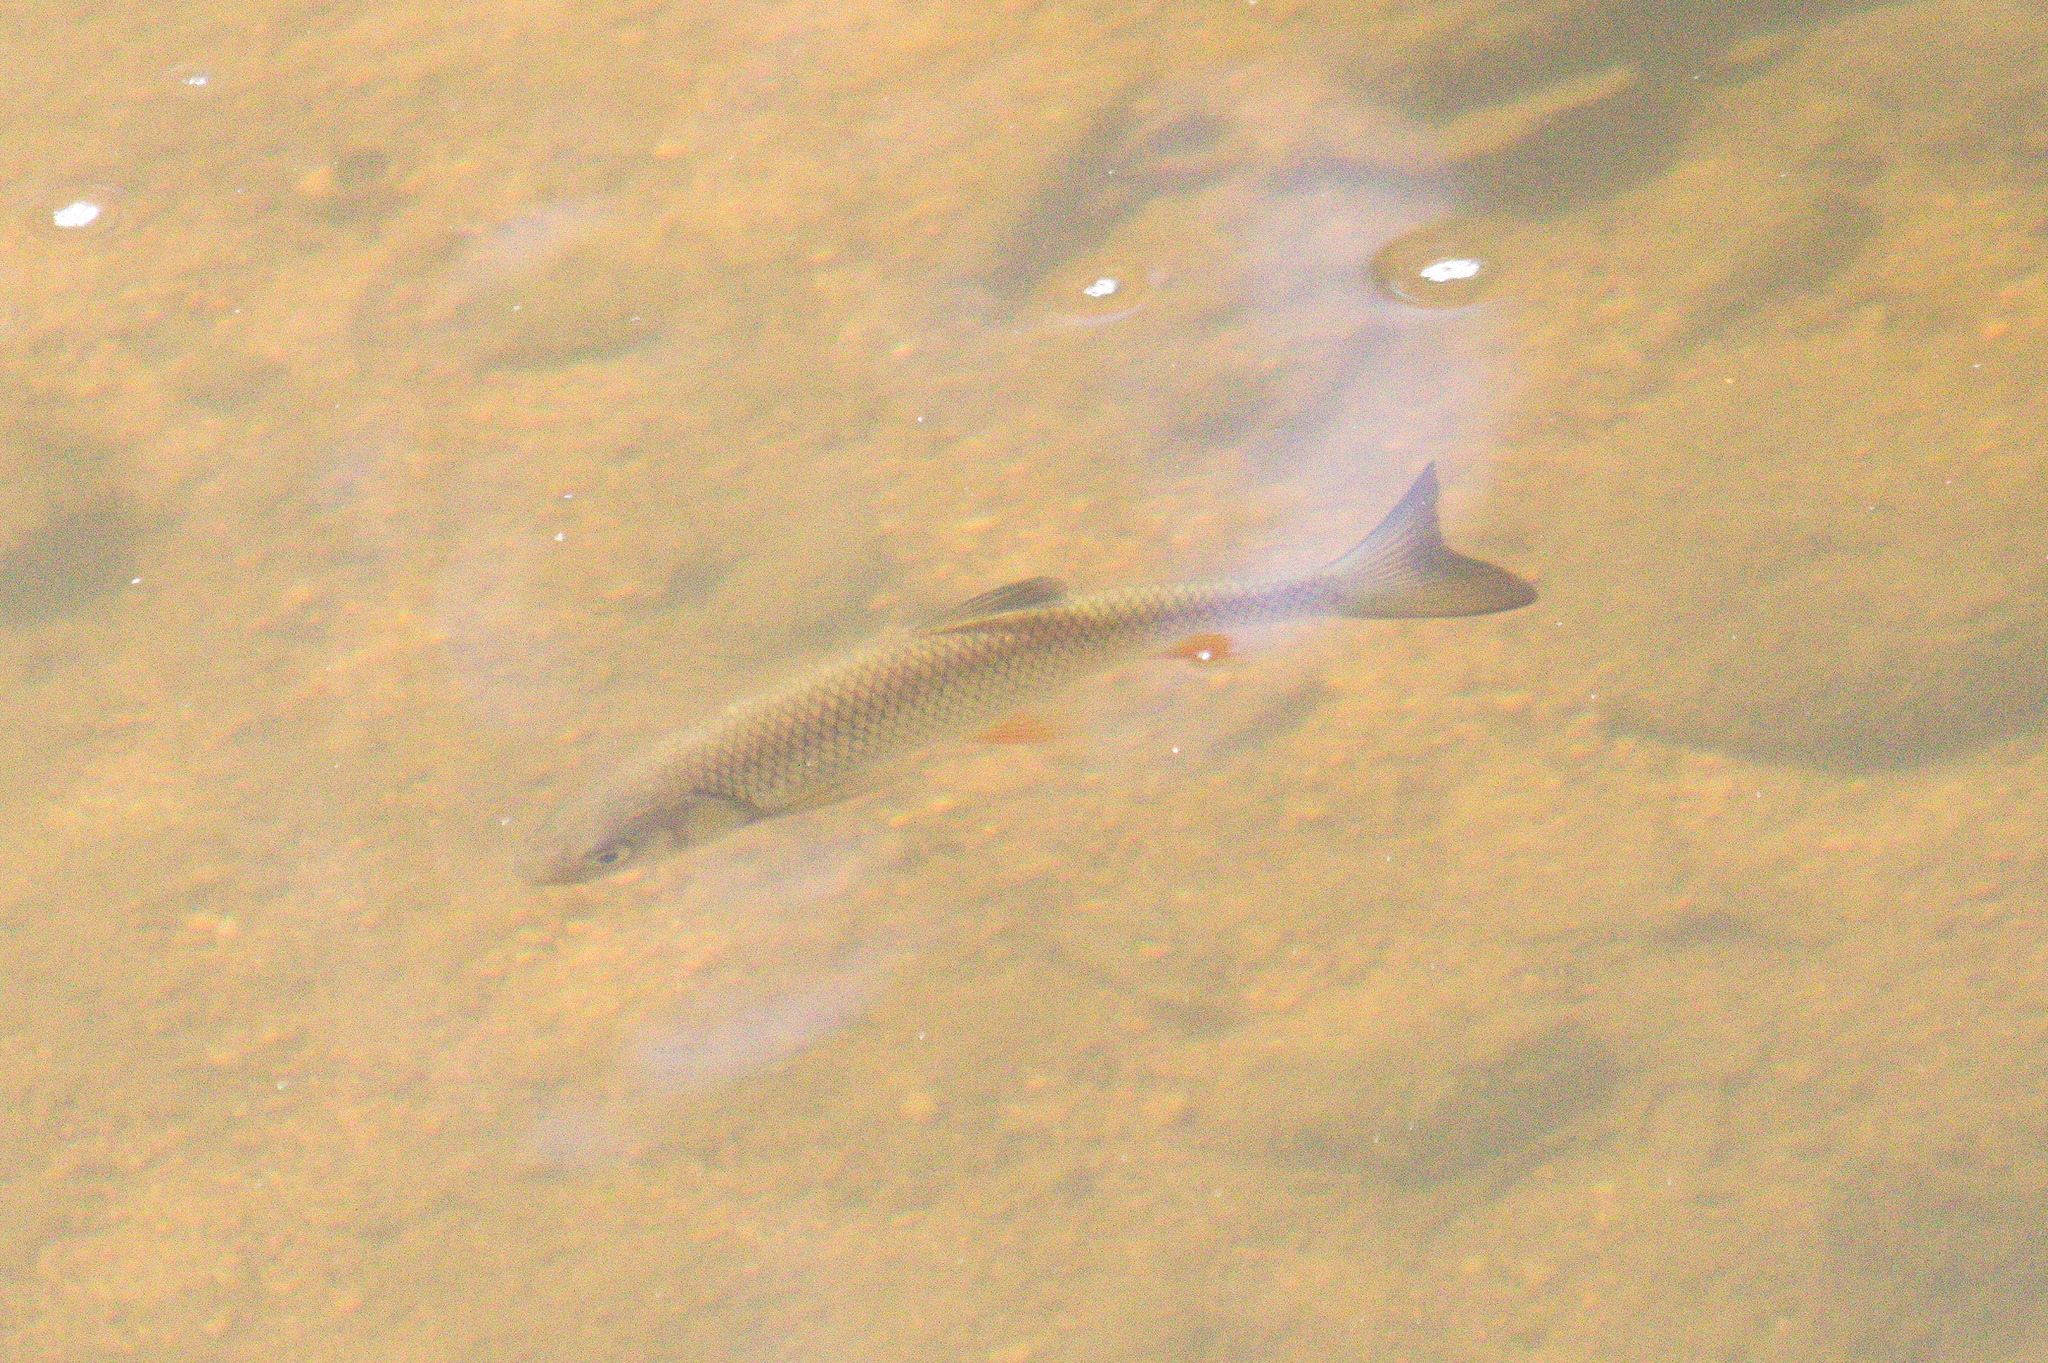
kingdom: Animalia
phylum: Chordata
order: Cypriniformes
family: Cyprinidae
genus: Squalius
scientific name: Squalius cephalus
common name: Chub
